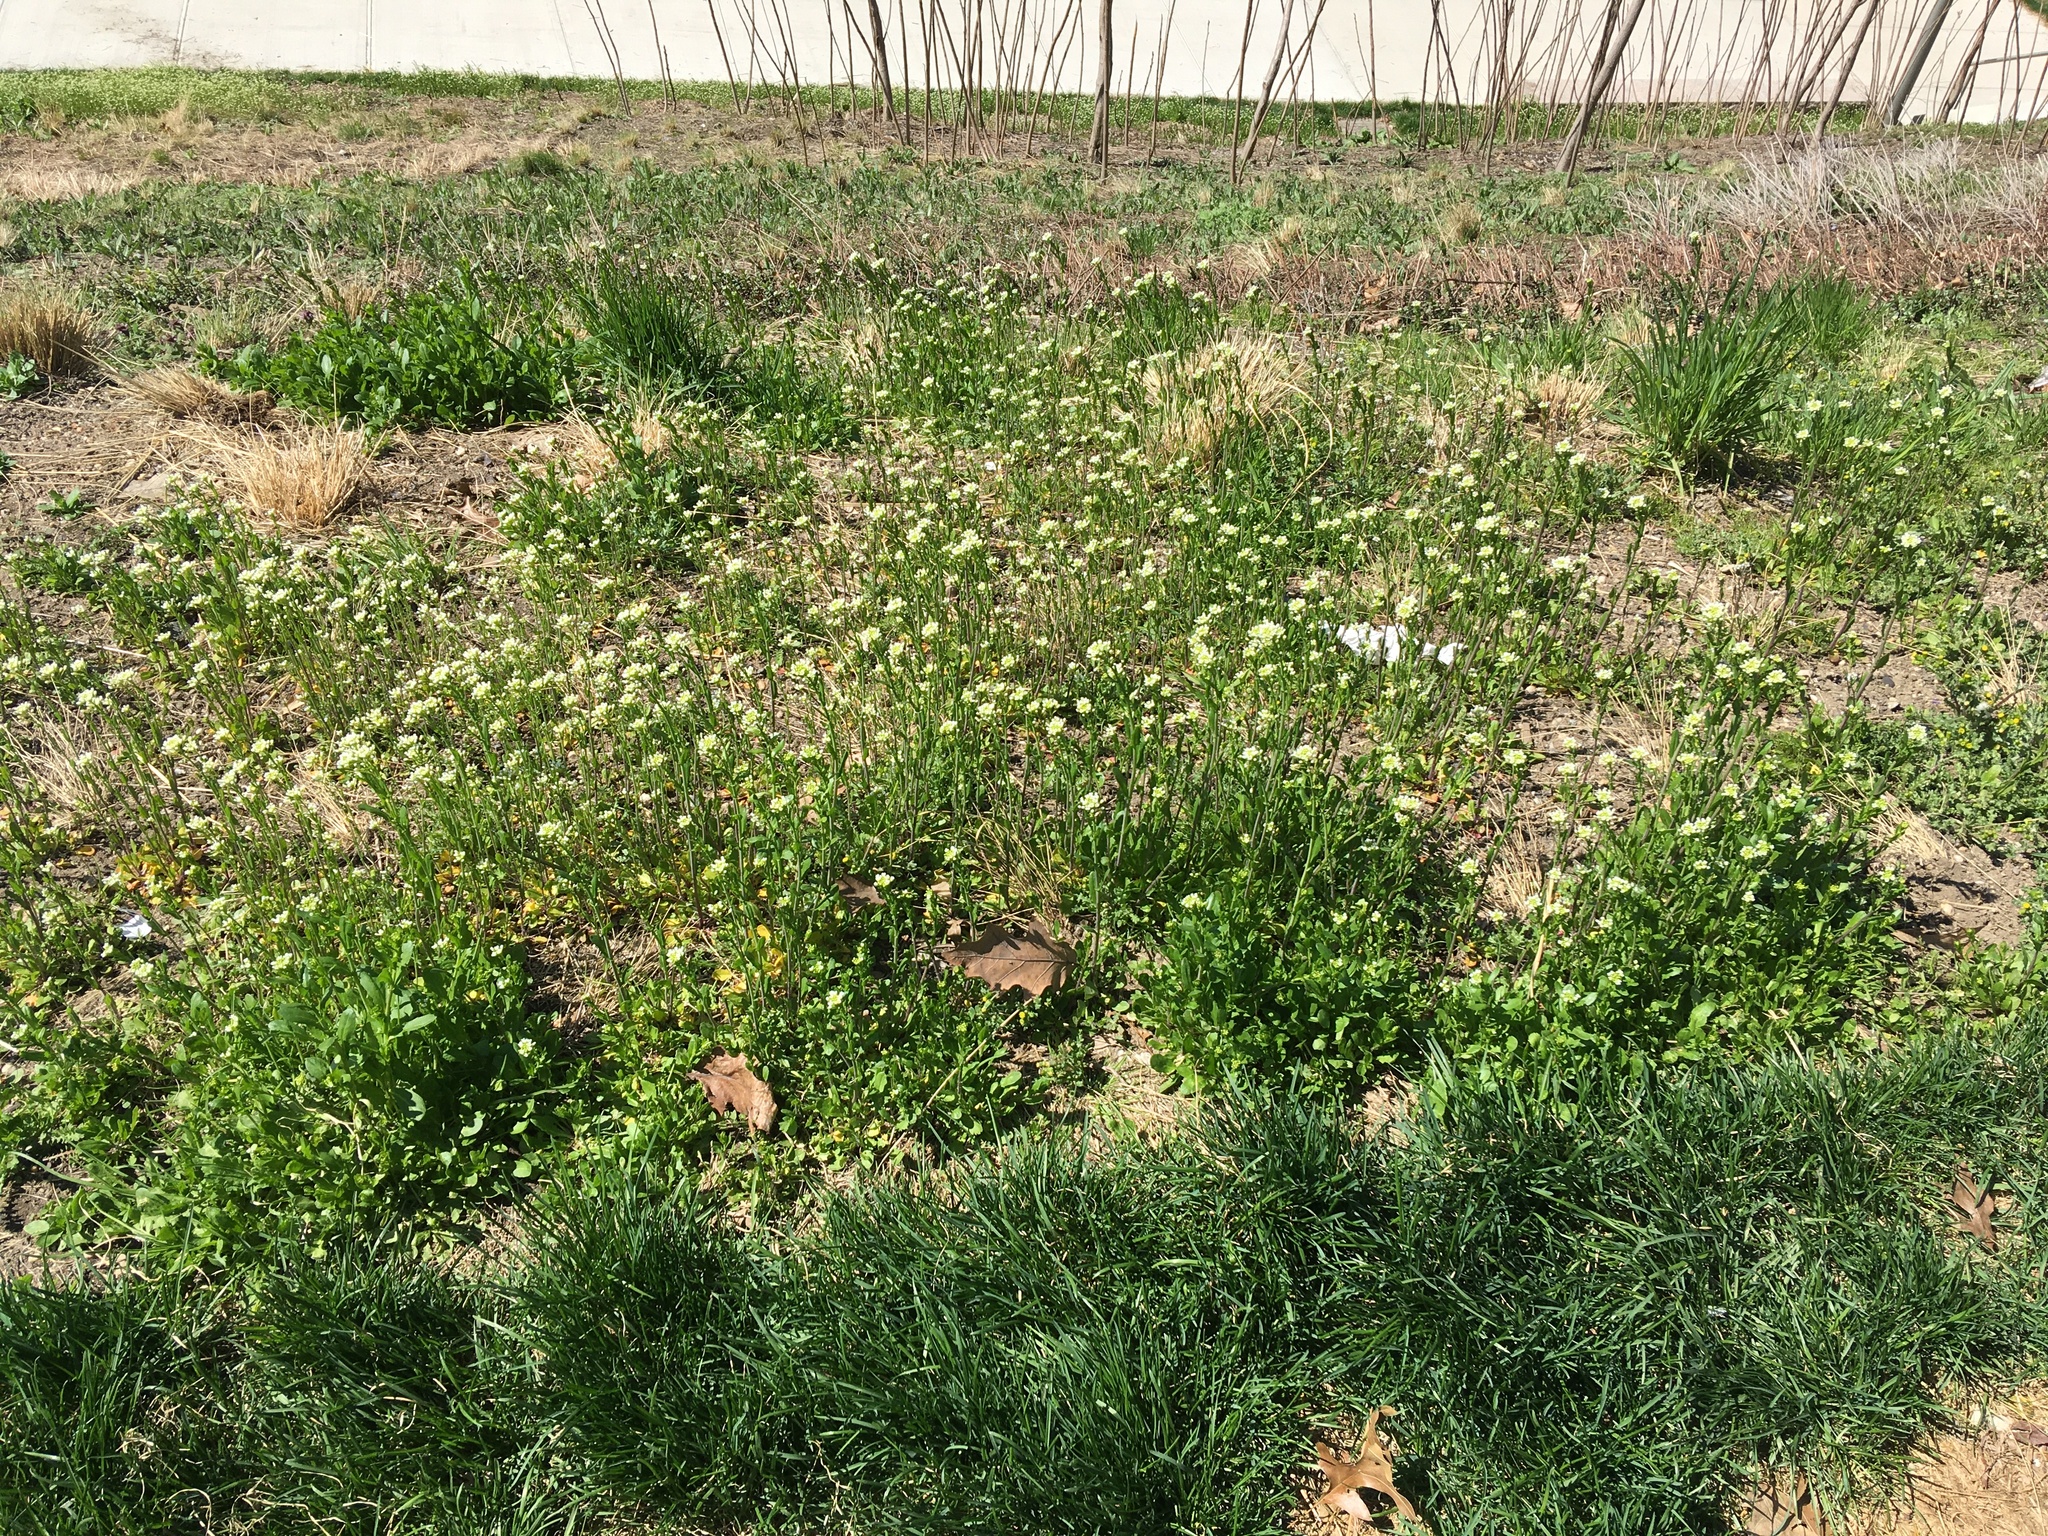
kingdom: Plantae
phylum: Tracheophyta
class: Magnoliopsida
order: Brassicales
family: Brassicaceae
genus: Mummenhoffia
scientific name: Mummenhoffia alliacea
